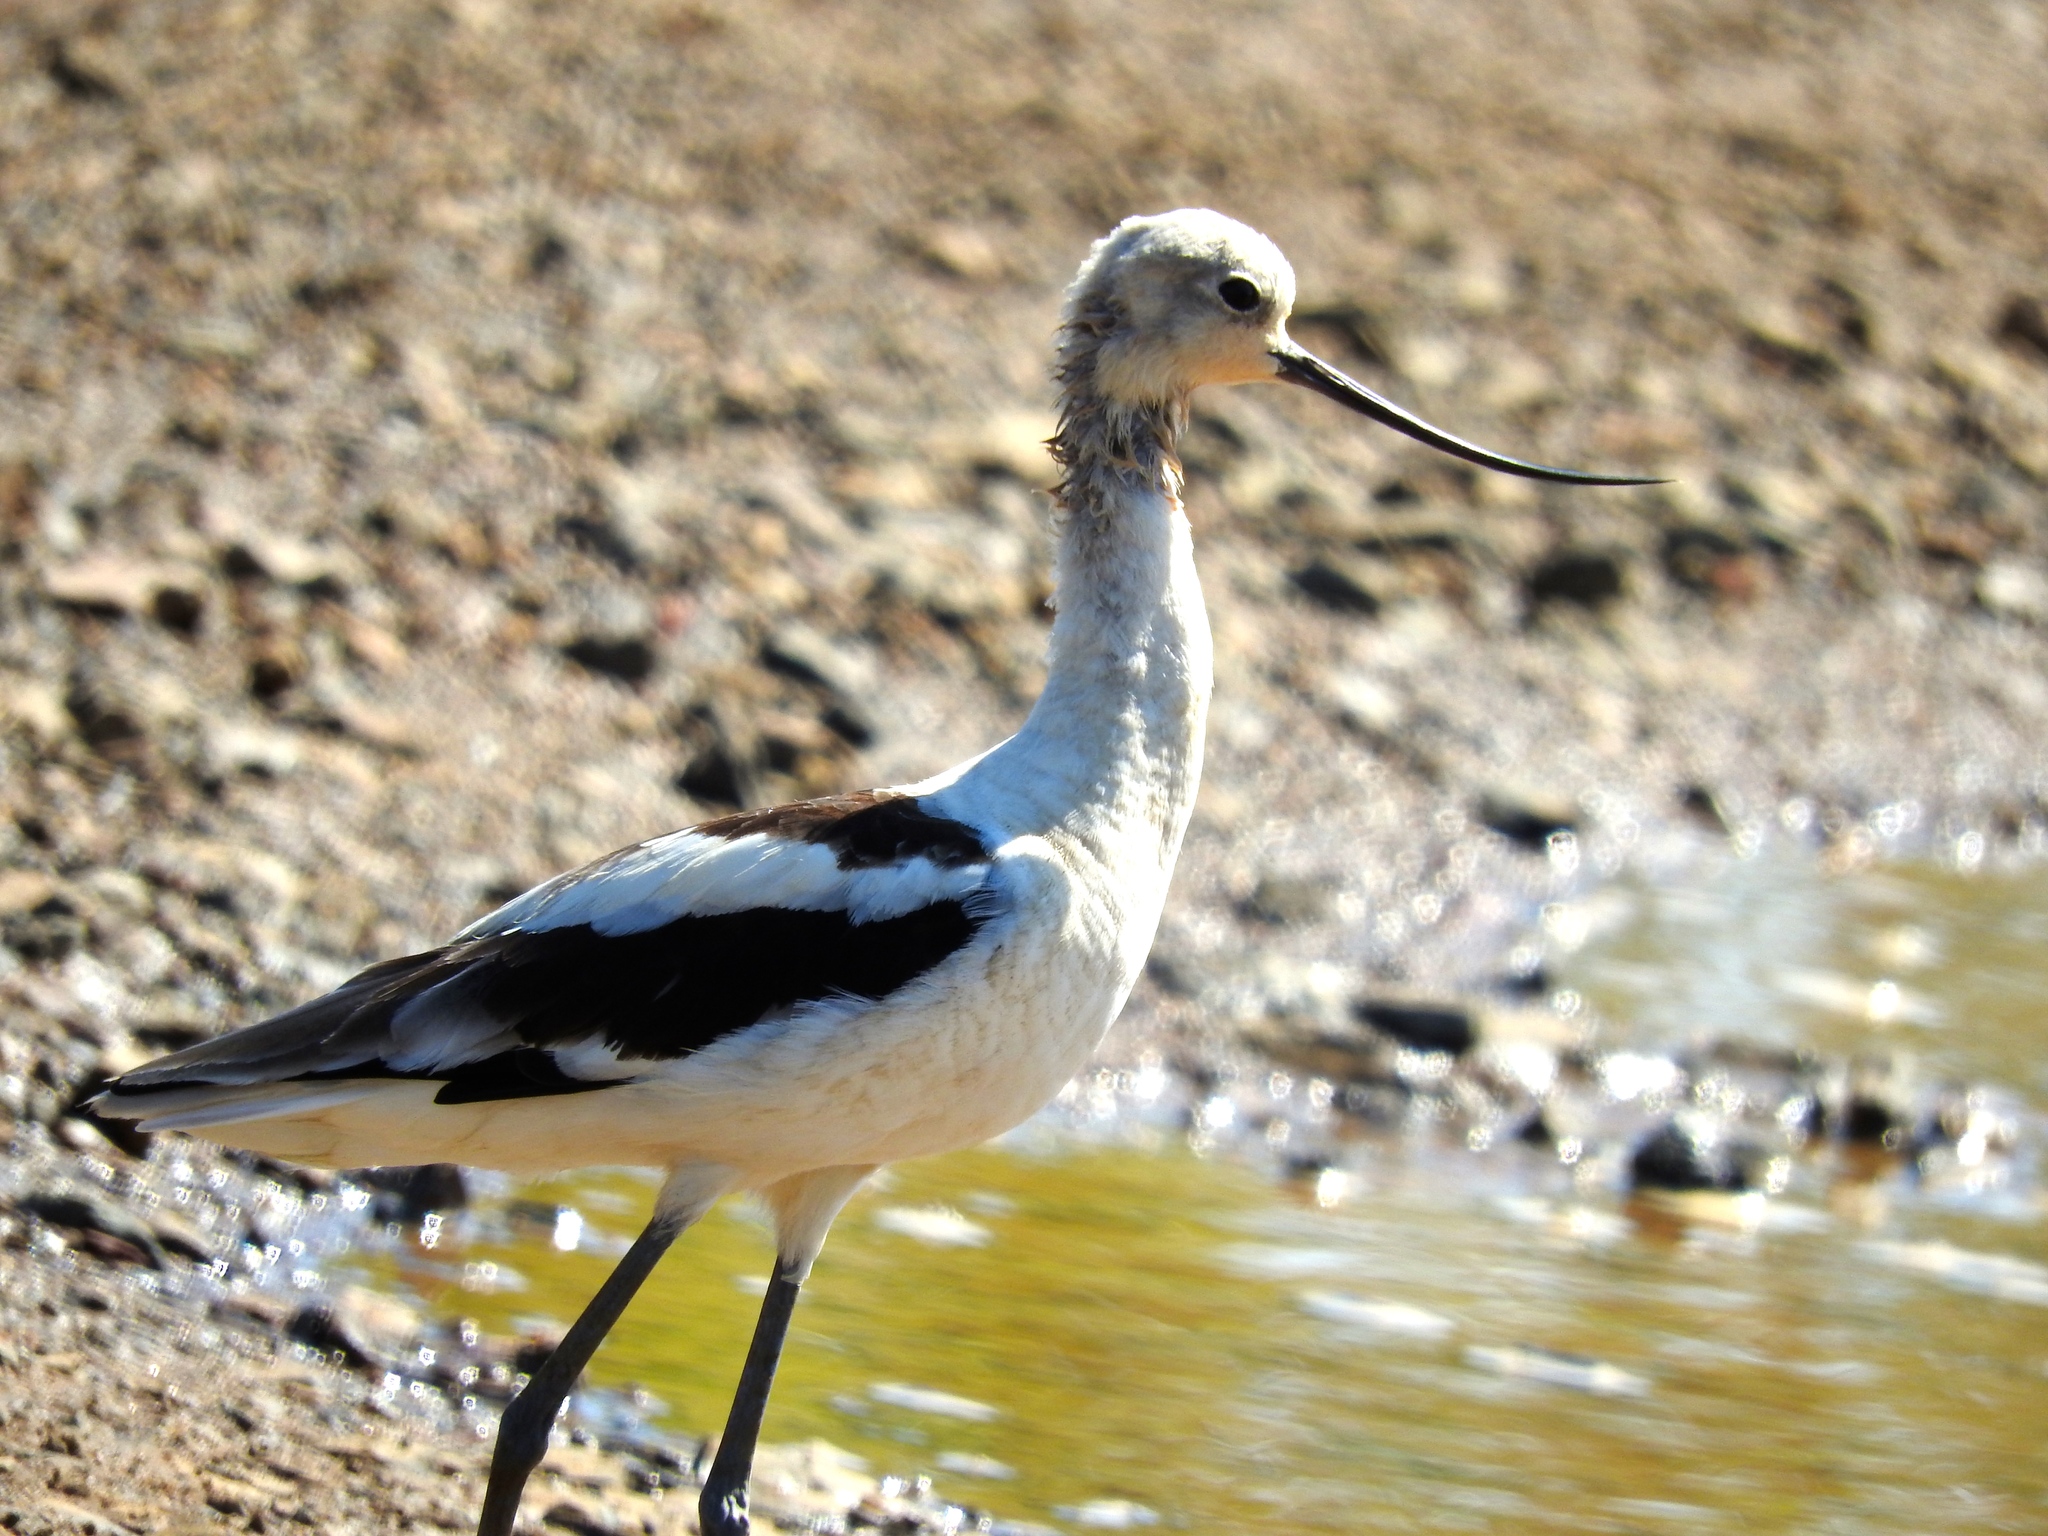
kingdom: Animalia
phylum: Chordata
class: Aves
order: Charadriiformes
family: Recurvirostridae
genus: Recurvirostra
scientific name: Recurvirostra americana
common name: American avocet
